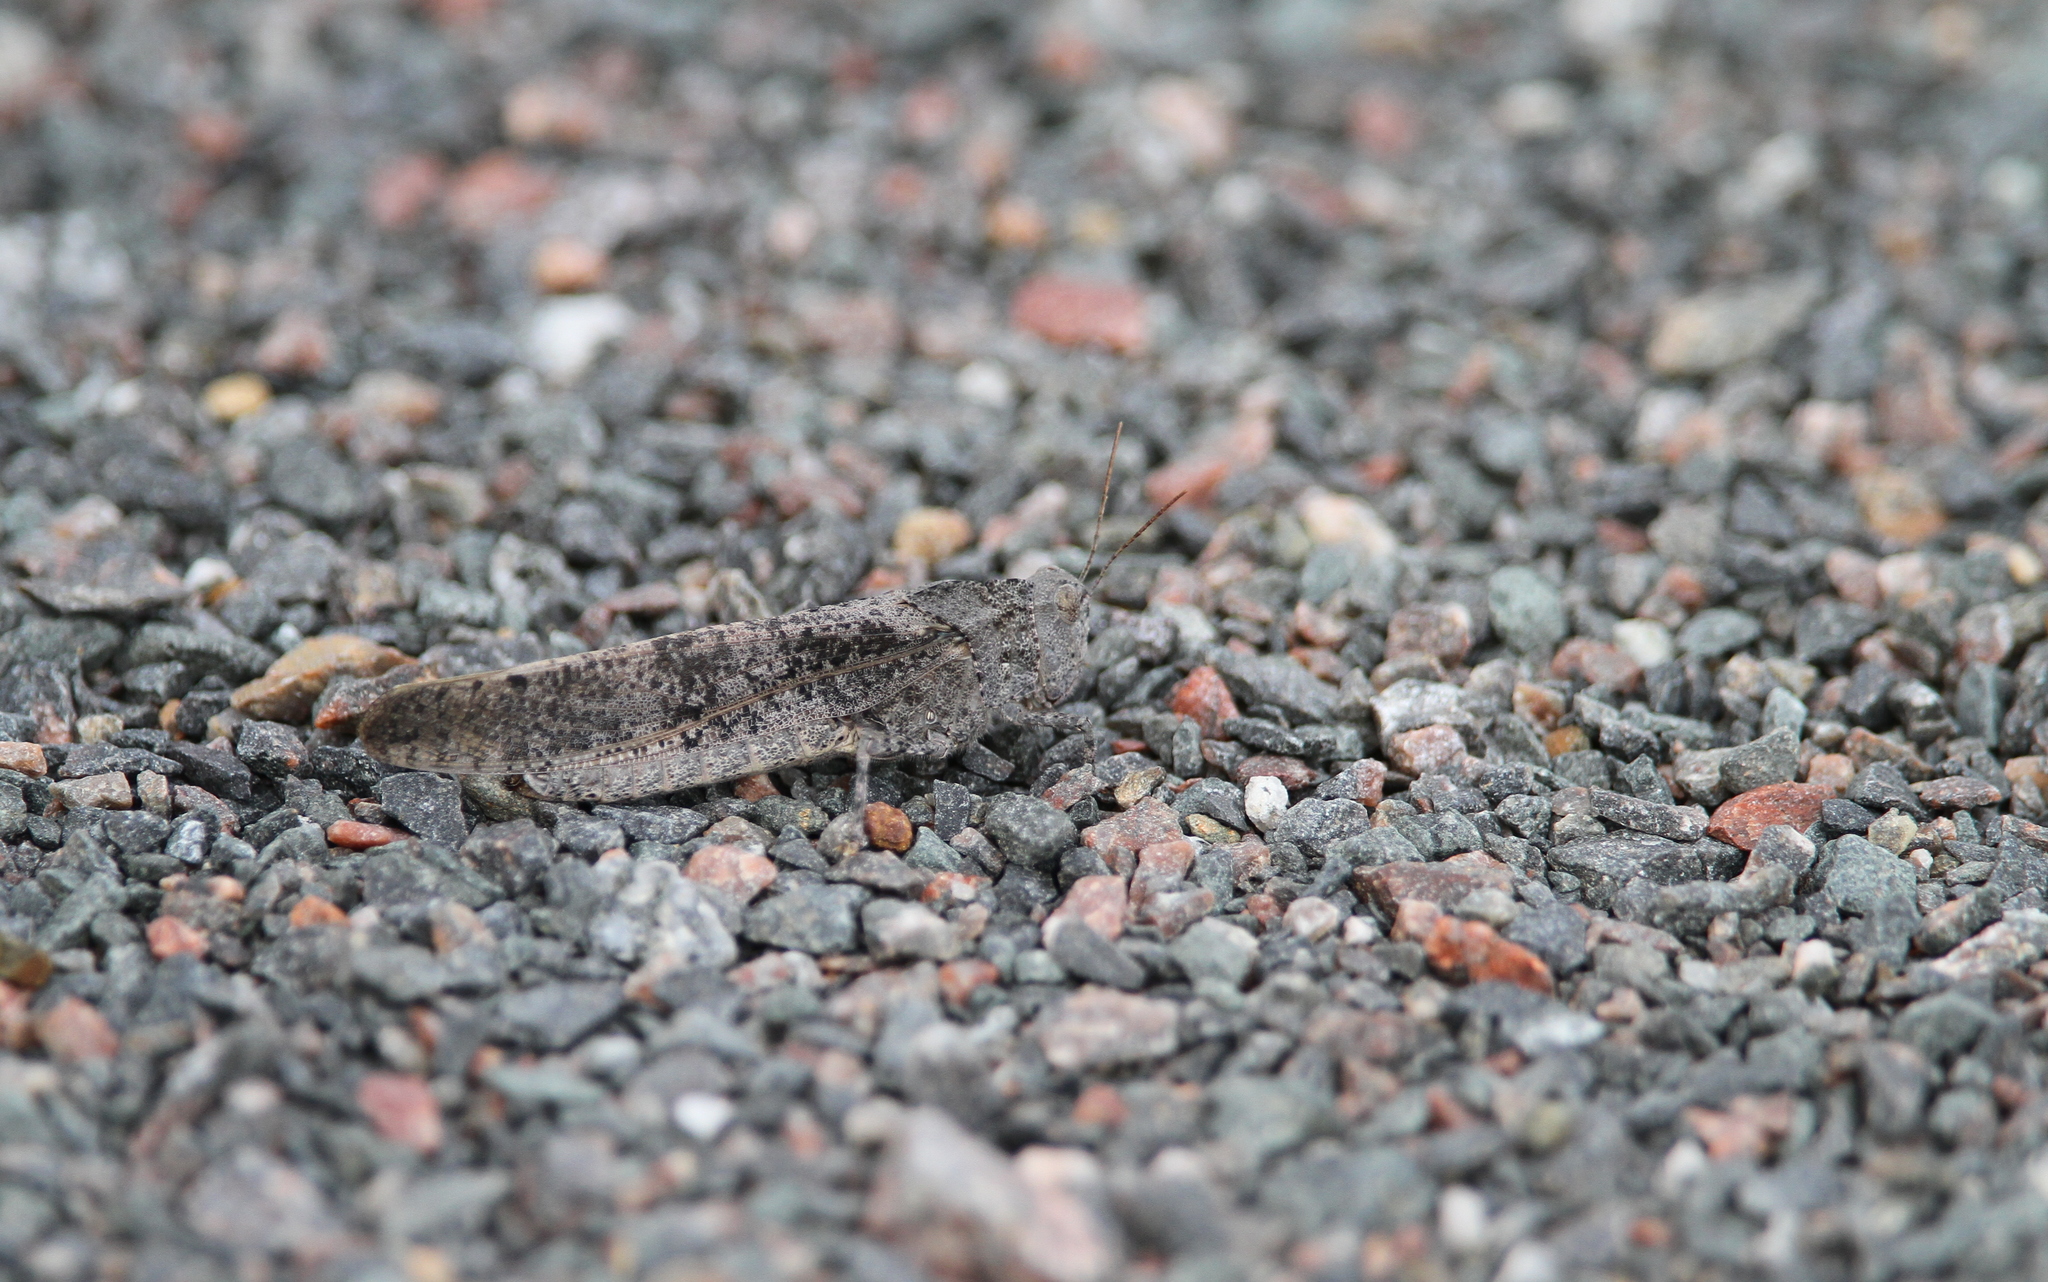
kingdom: Animalia
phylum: Arthropoda
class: Insecta
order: Orthoptera
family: Acrididae
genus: Dissosteira
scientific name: Dissosteira carolina
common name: Carolina grasshopper
